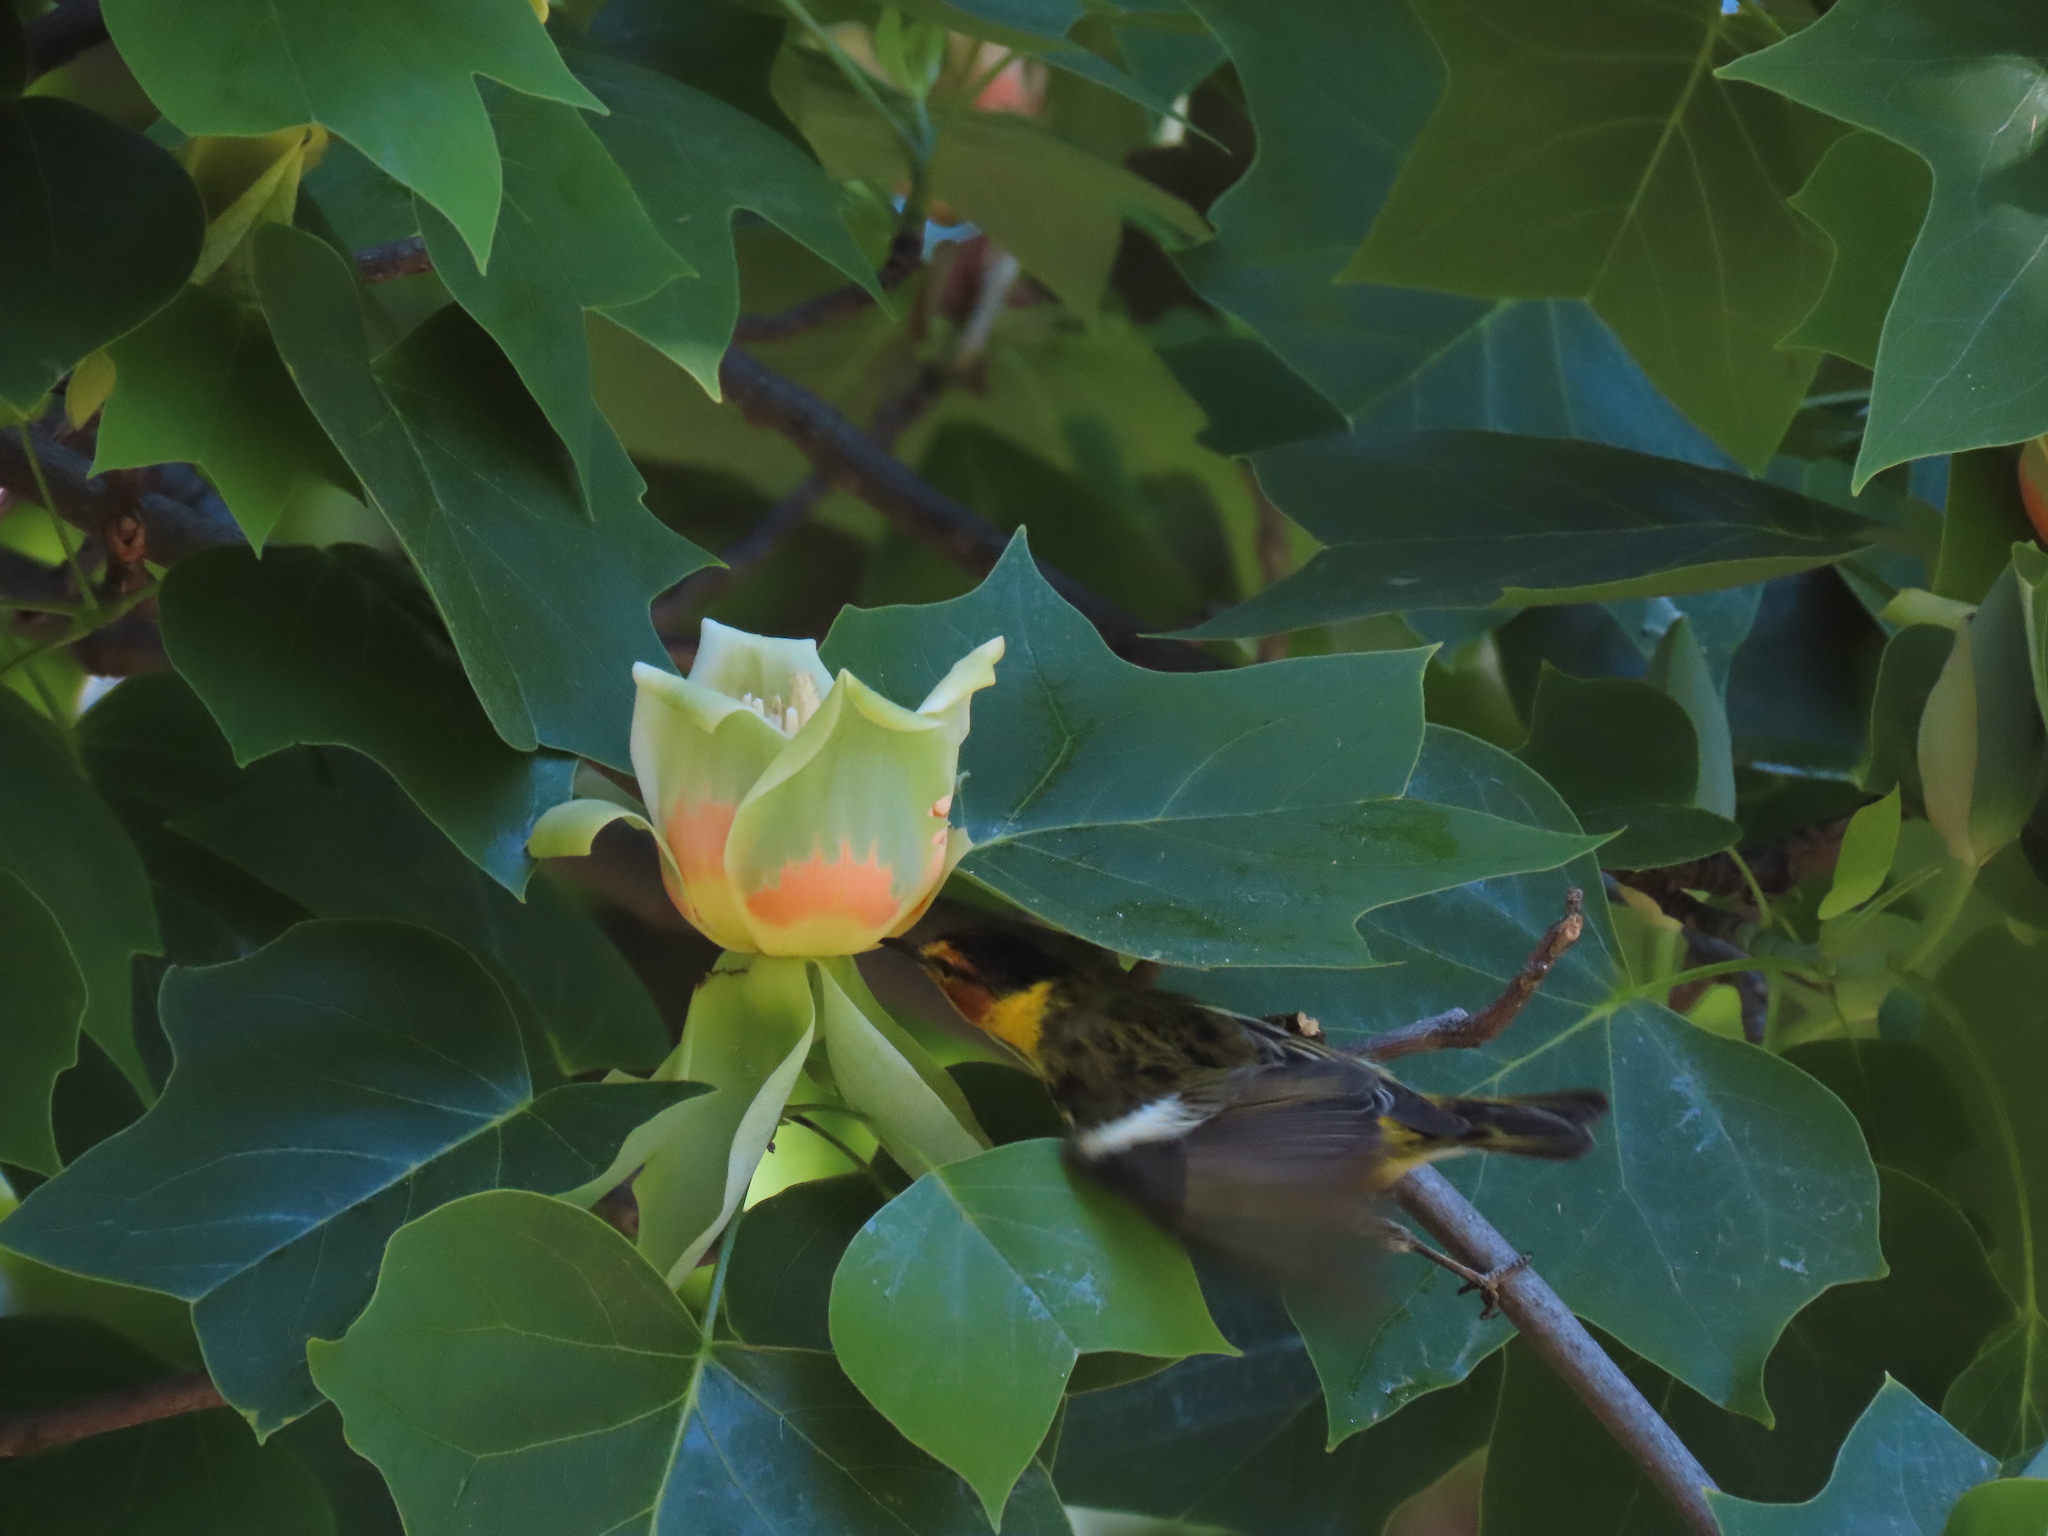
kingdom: Animalia
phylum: Chordata
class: Aves
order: Passeriformes
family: Parulidae
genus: Setophaga
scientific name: Setophaga tigrina
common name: Cape may warbler
